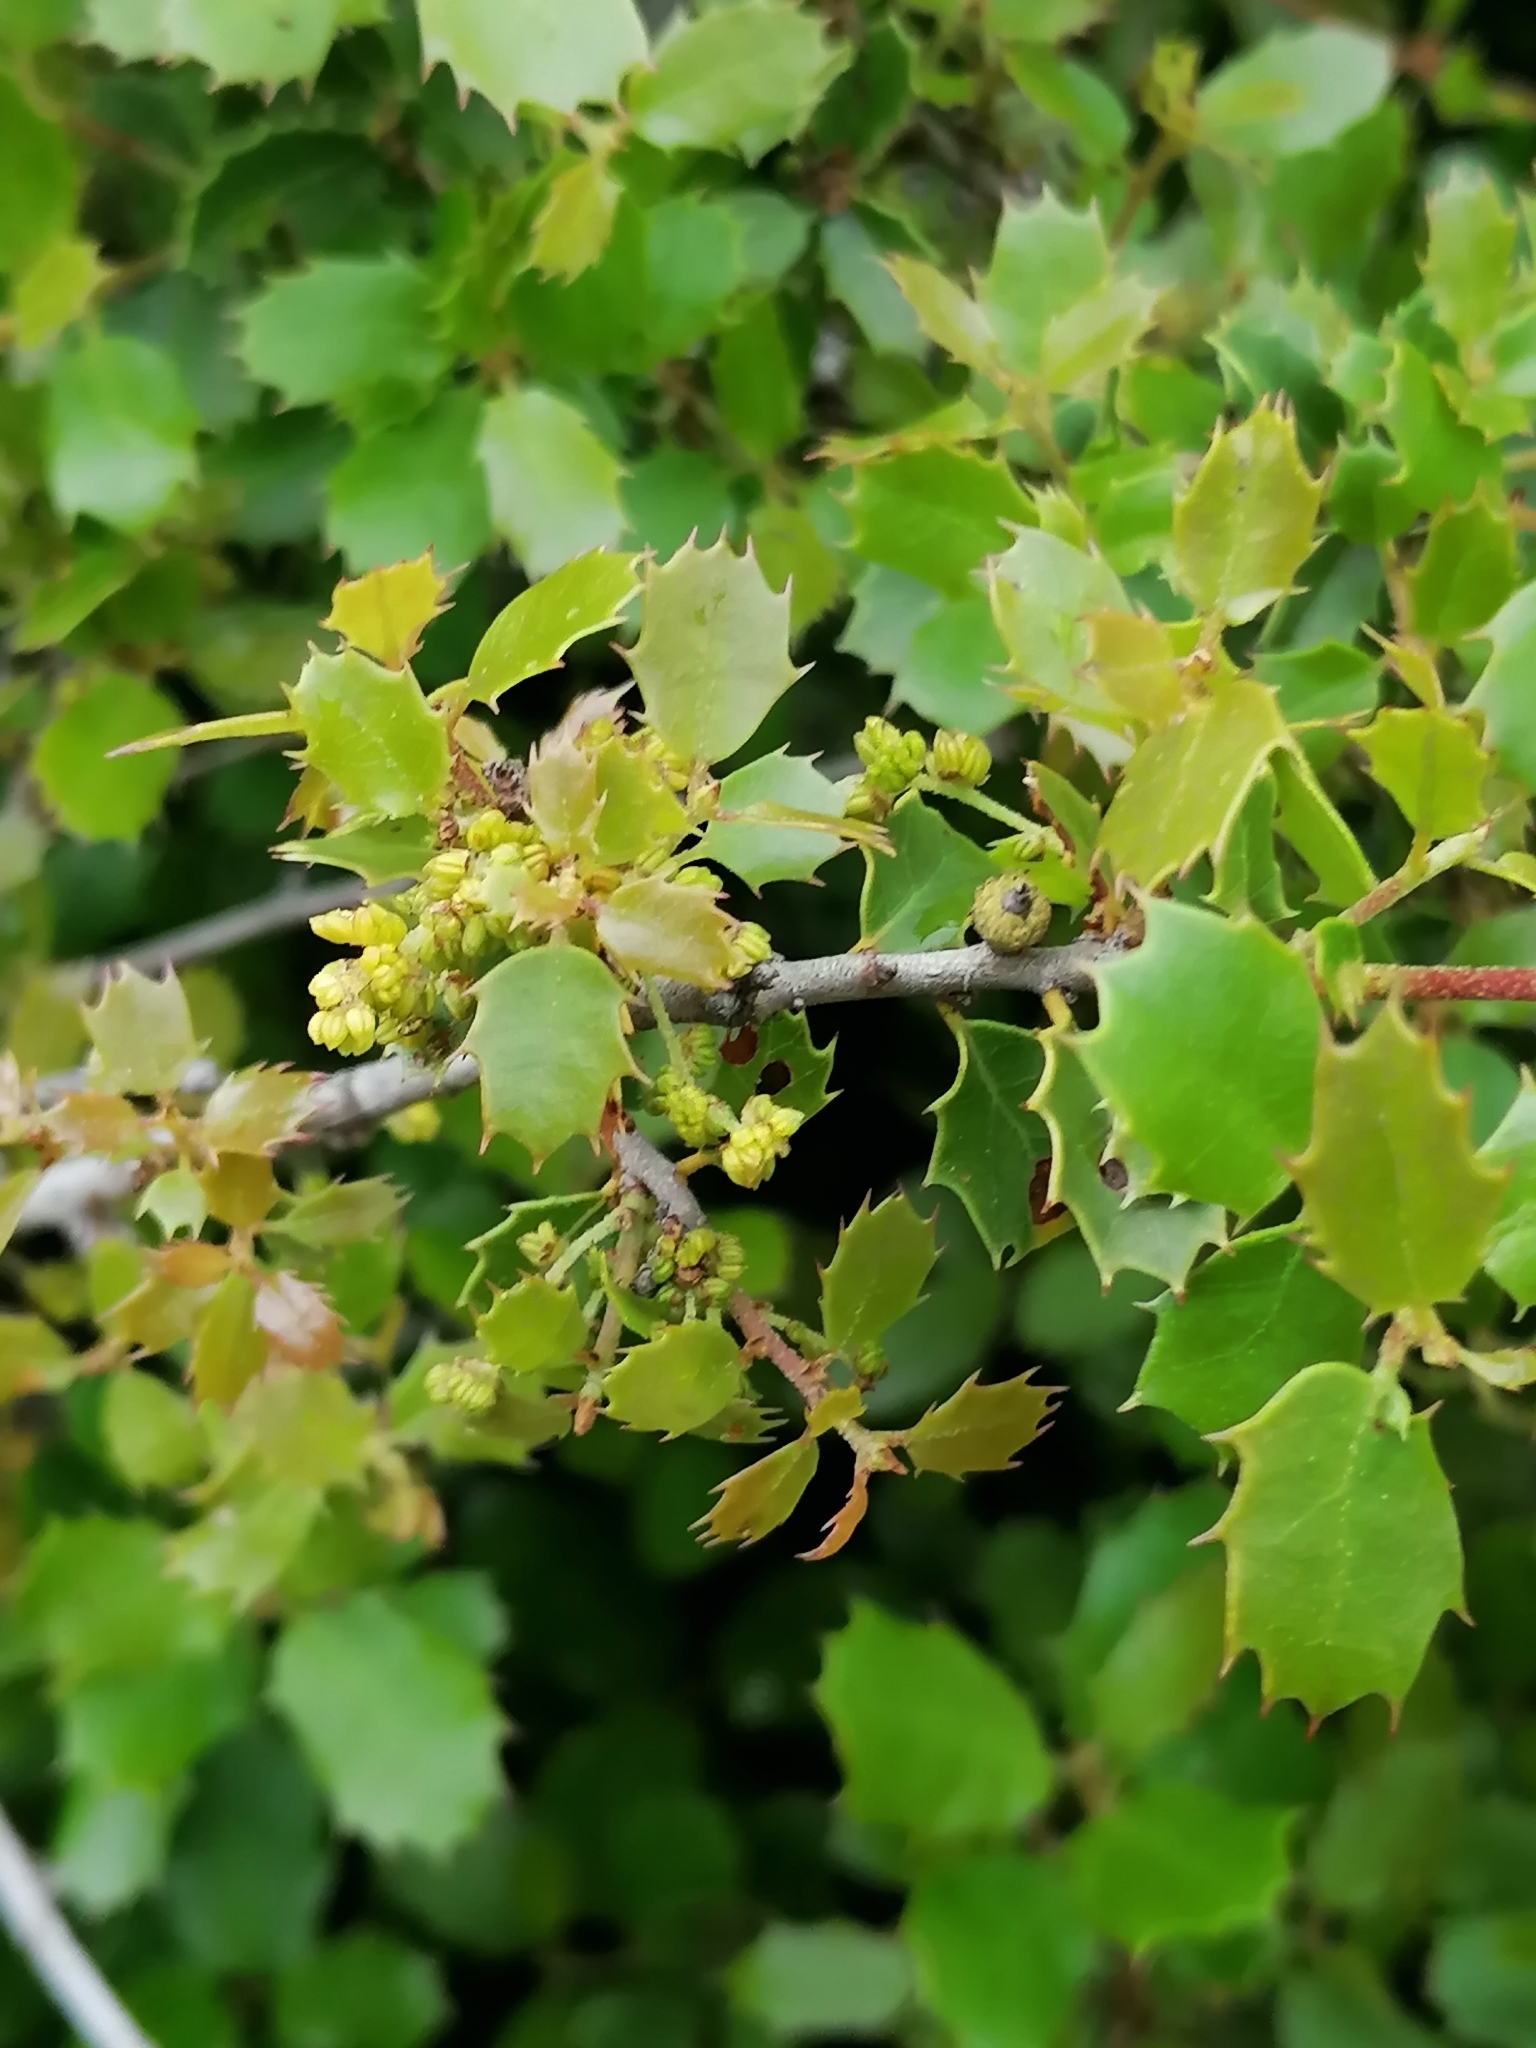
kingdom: Plantae
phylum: Tracheophyta
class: Magnoliopsida
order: Fagales
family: Fagaceae
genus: Quercus
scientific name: Quercus coccifera
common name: Kermes oak
